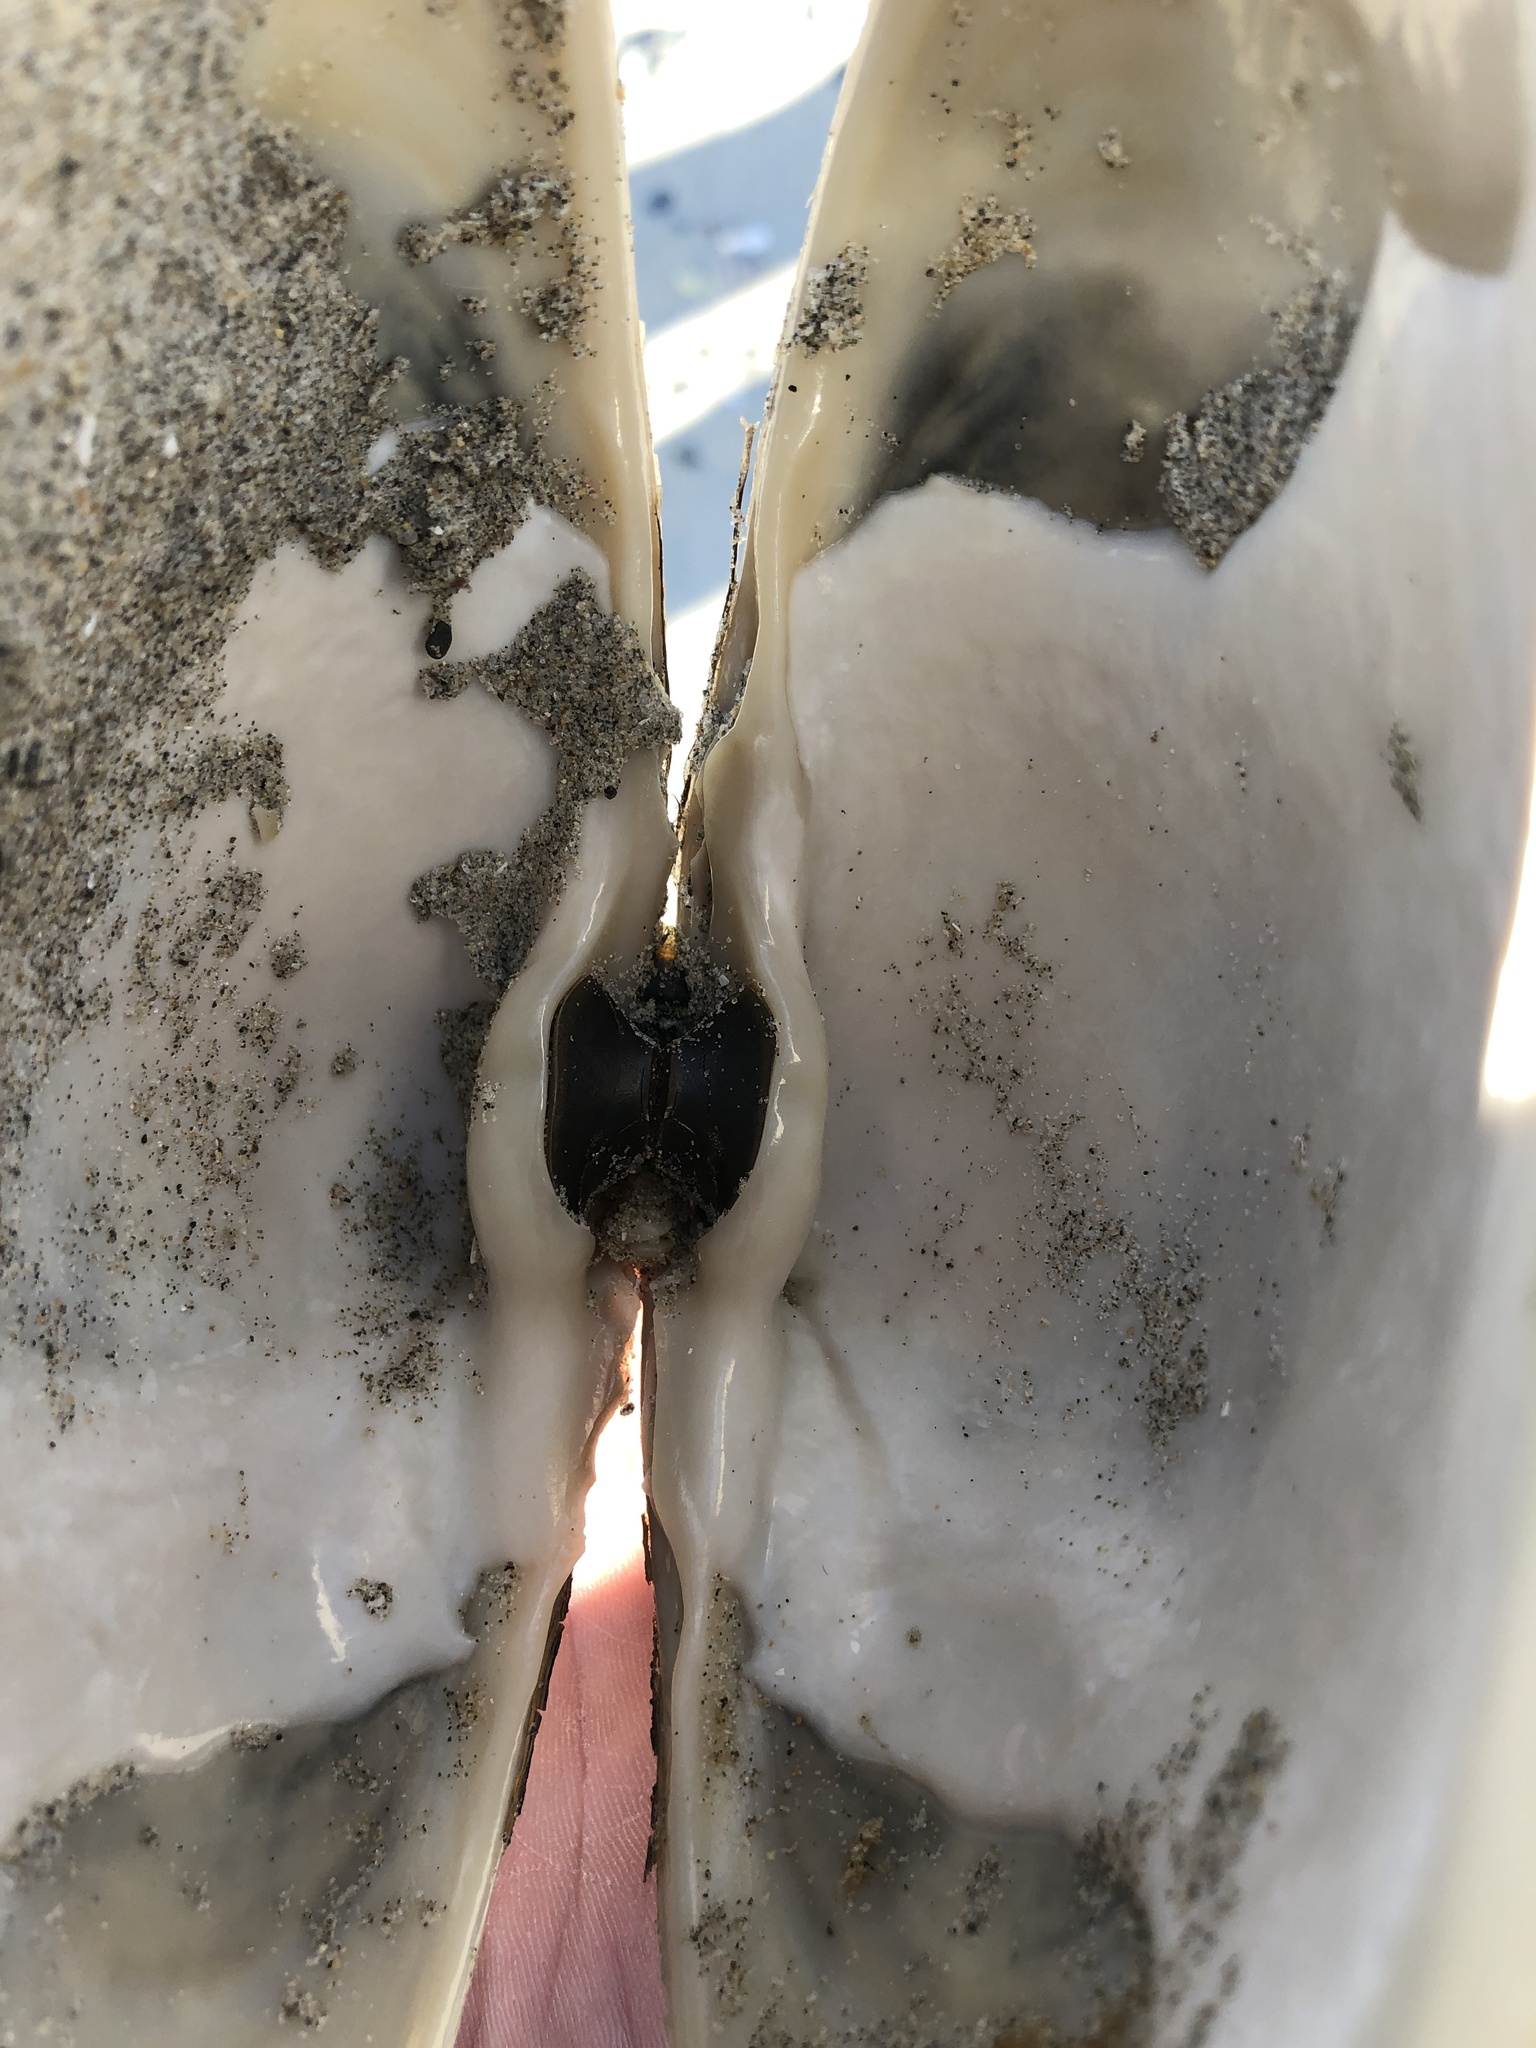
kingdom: Animalia
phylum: Mollusca
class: Bivalvia
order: Venerida
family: Mactridae
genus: Spisula
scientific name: Spisula solidissima
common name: Atlantic surf clam
